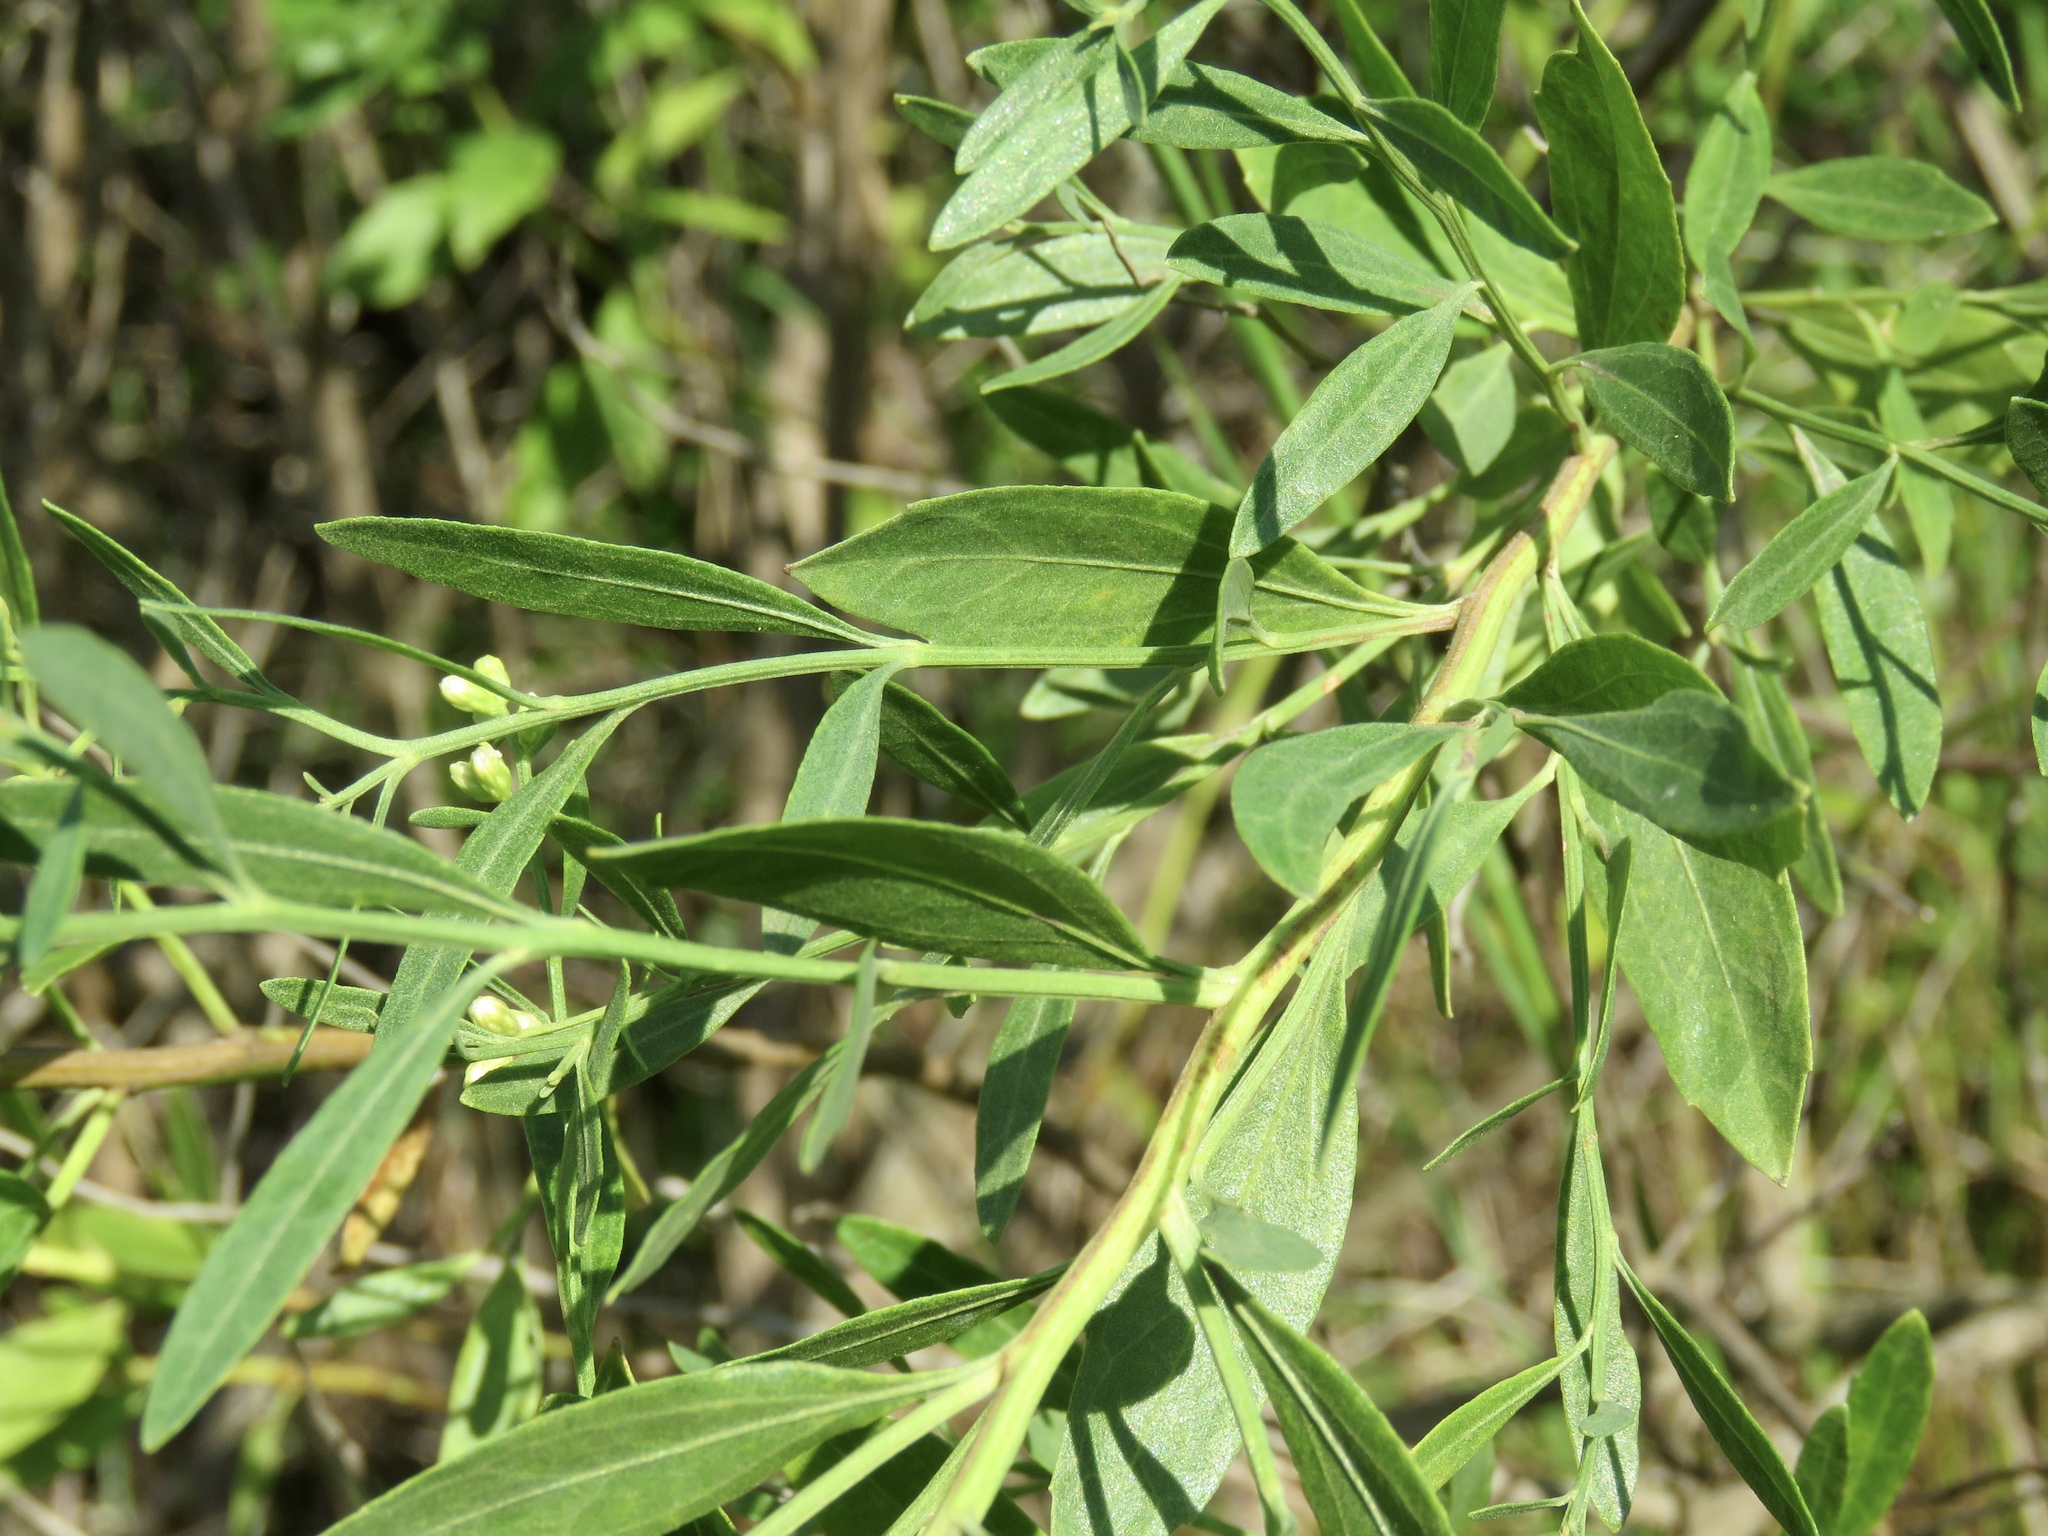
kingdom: Plantae
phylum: Tracheophyta
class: Magnoliopsida
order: Asterales
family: Asteraceae
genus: Baccharis
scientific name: Baccharis halimifolia
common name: Eastern baccharis
